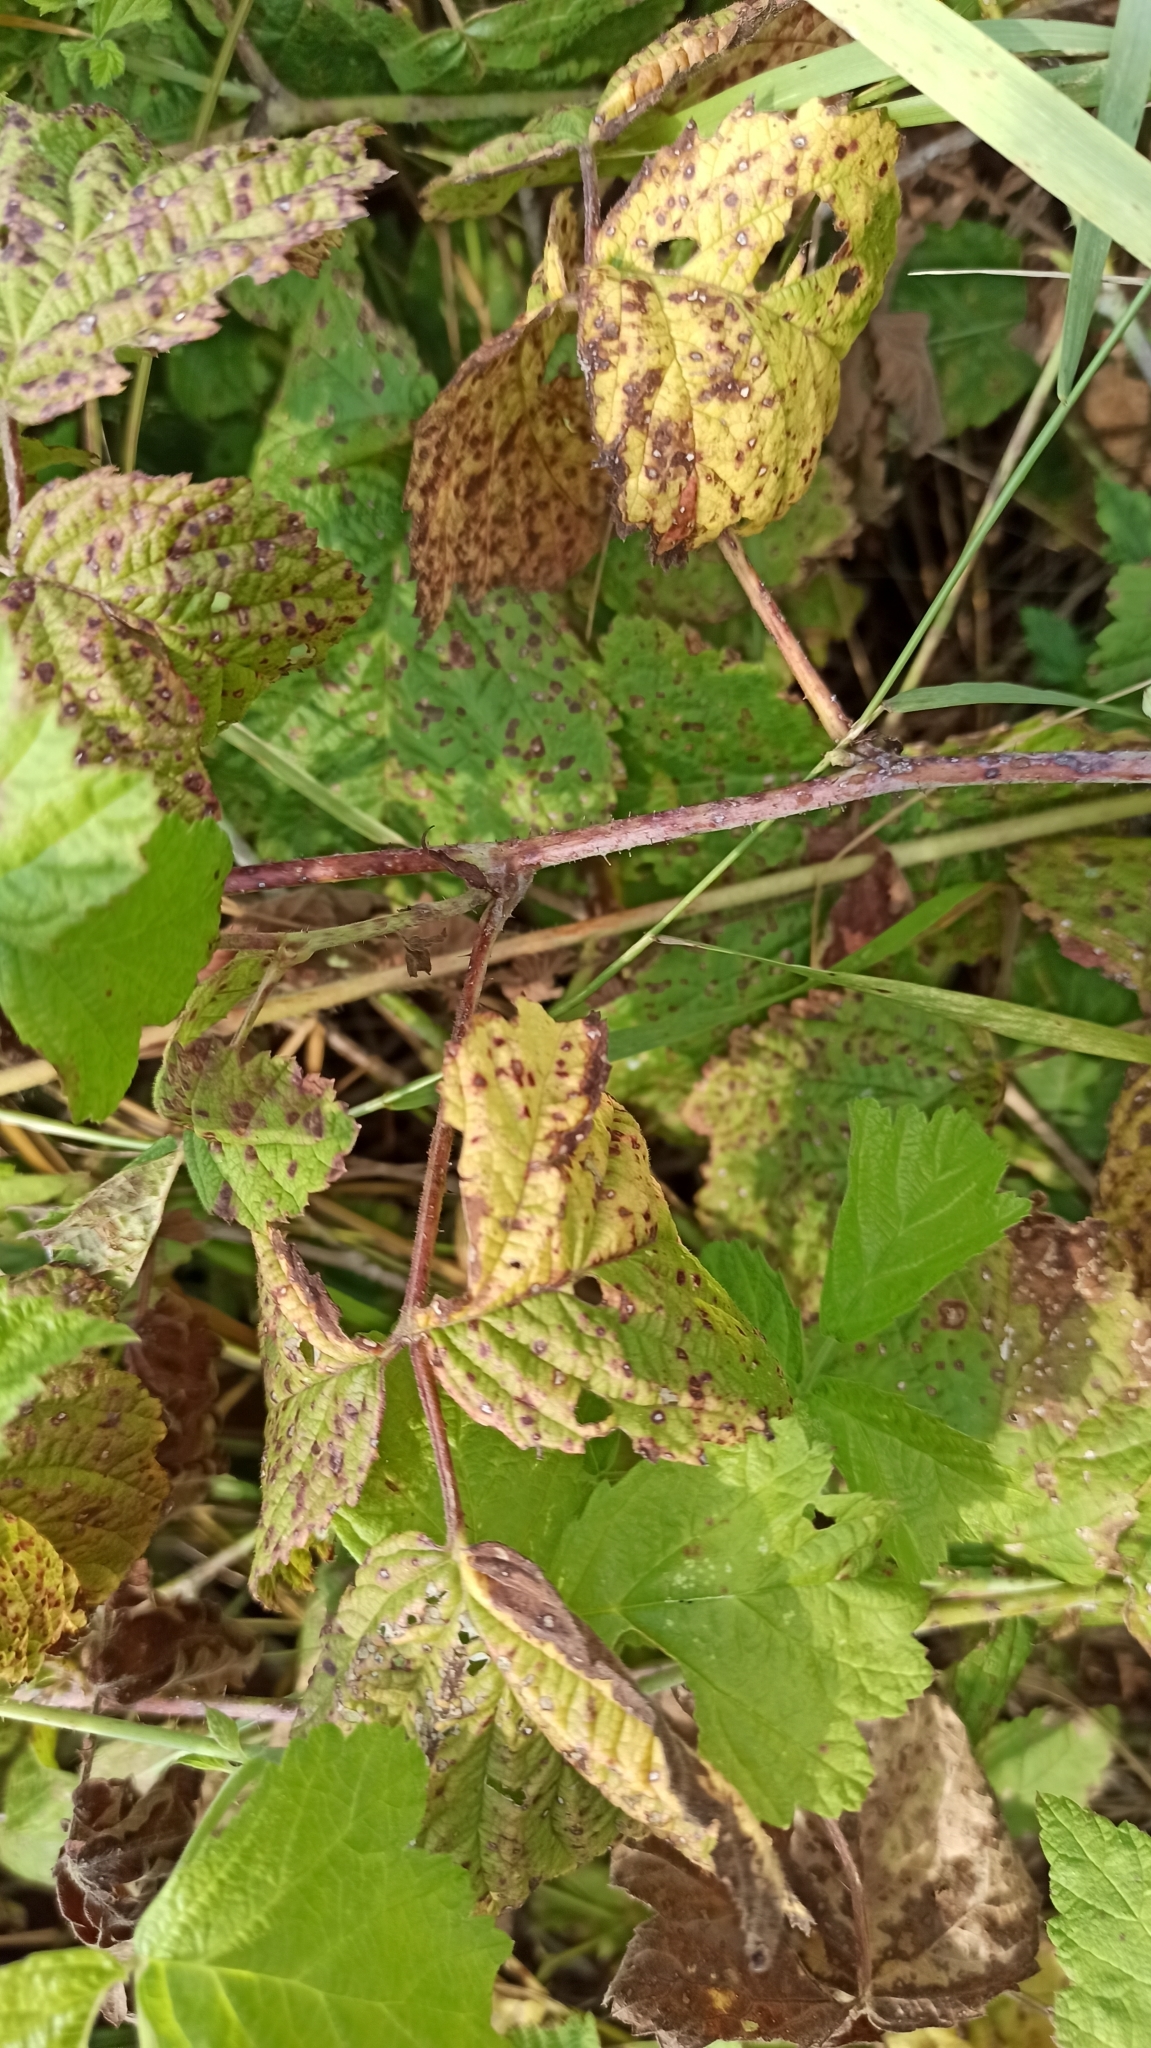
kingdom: Plantae
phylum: Tracheophyta
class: Magnoliopsida
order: Rosales
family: Rosaceae
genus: Rubus
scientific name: Rubus caesius
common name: Dewberry
